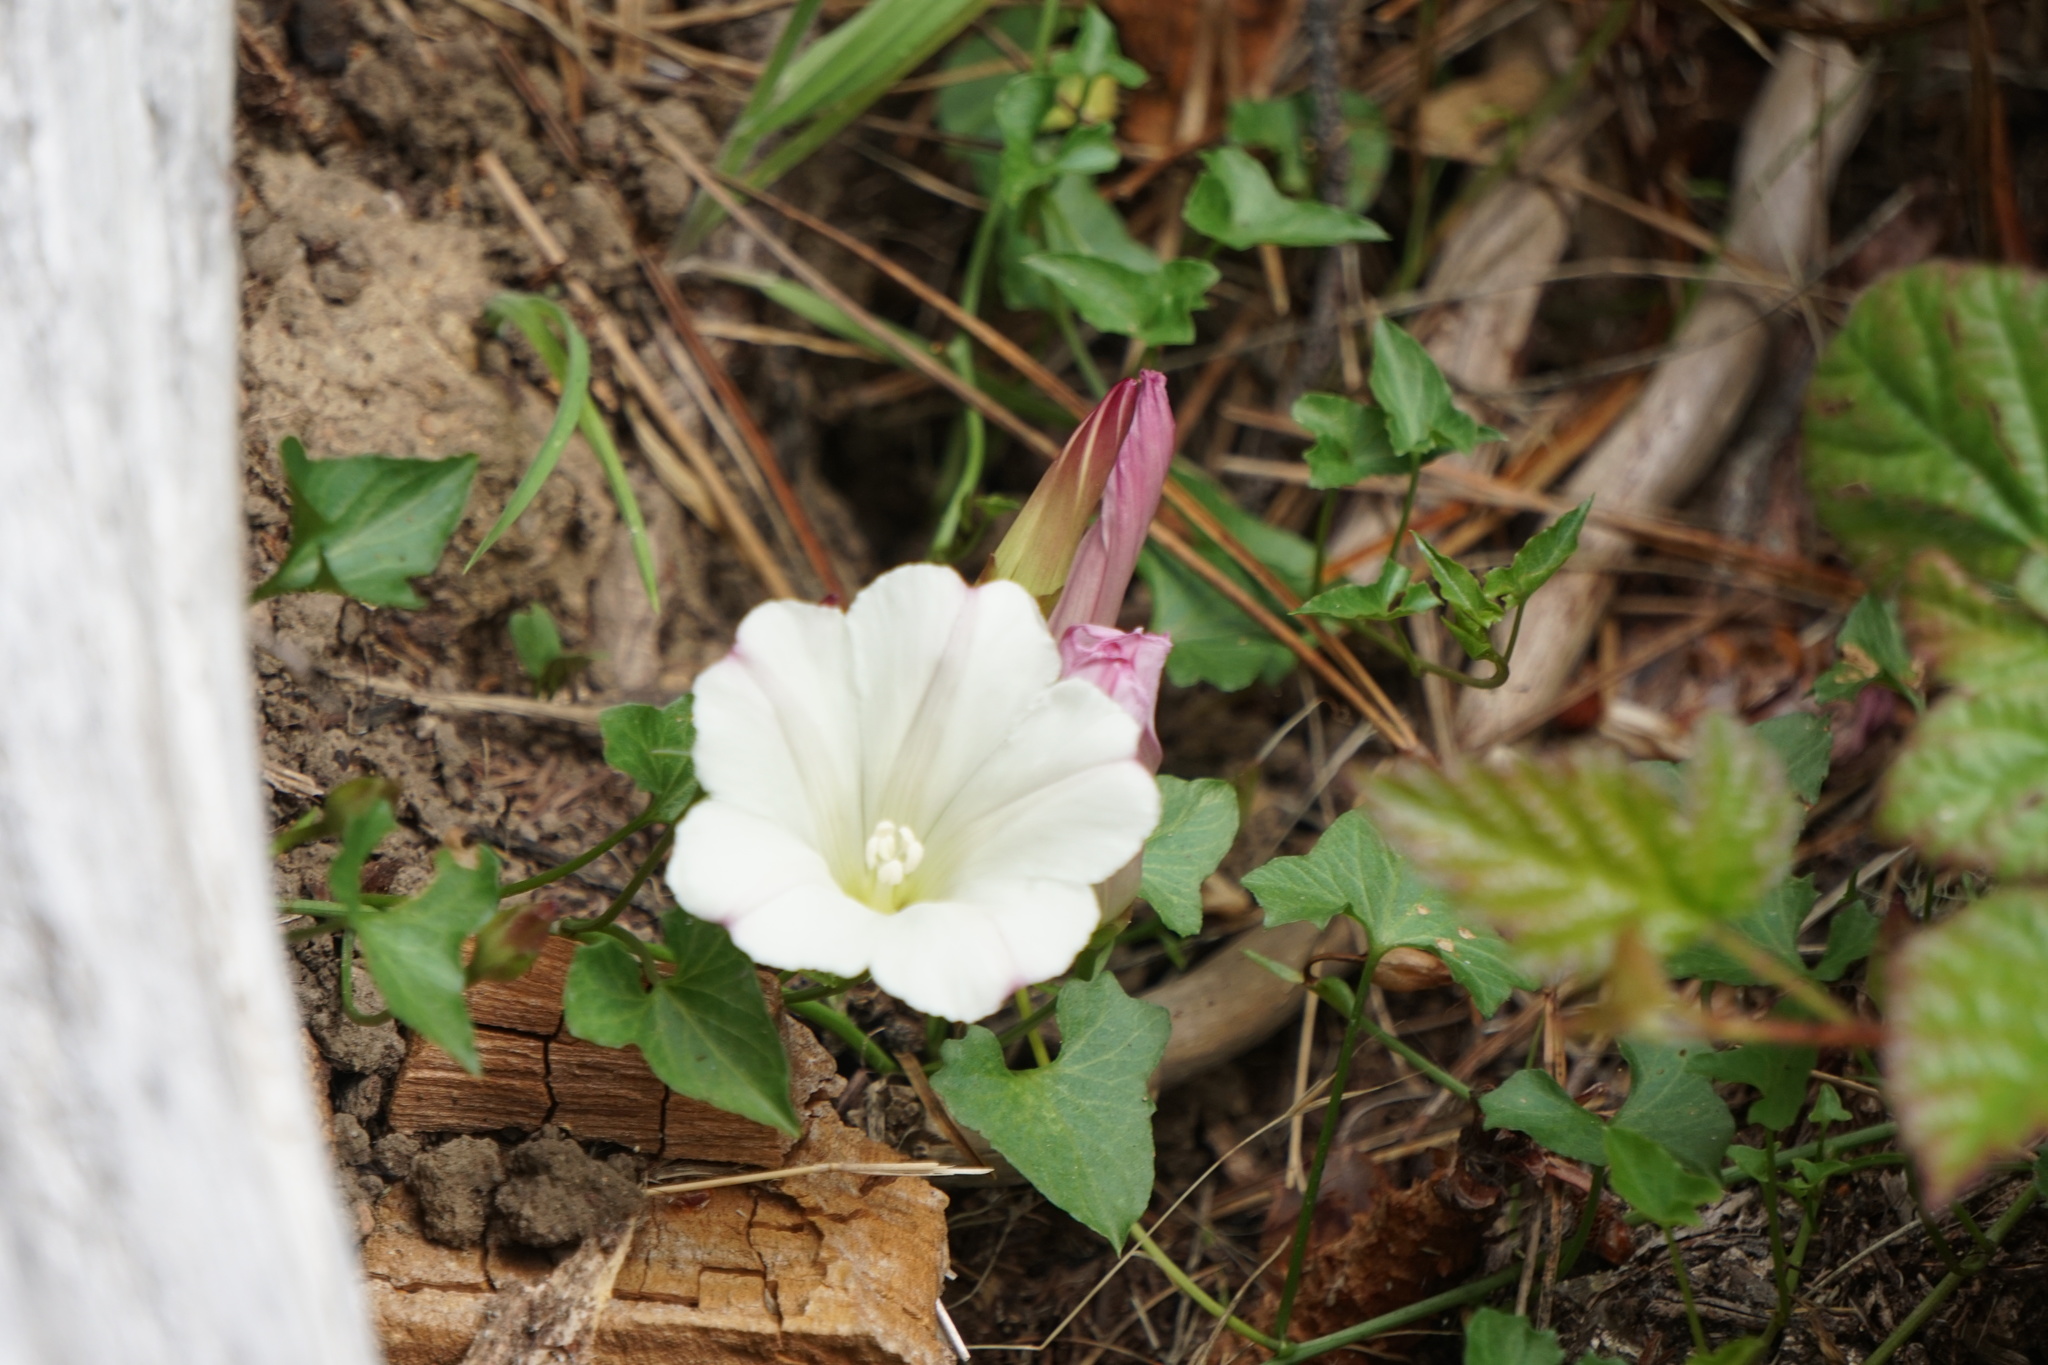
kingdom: Plantae
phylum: Tracheophyta
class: Magnoliopsida
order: Solanales
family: Convolvulaceae
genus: Calystegia
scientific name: Calystegia purpurata
